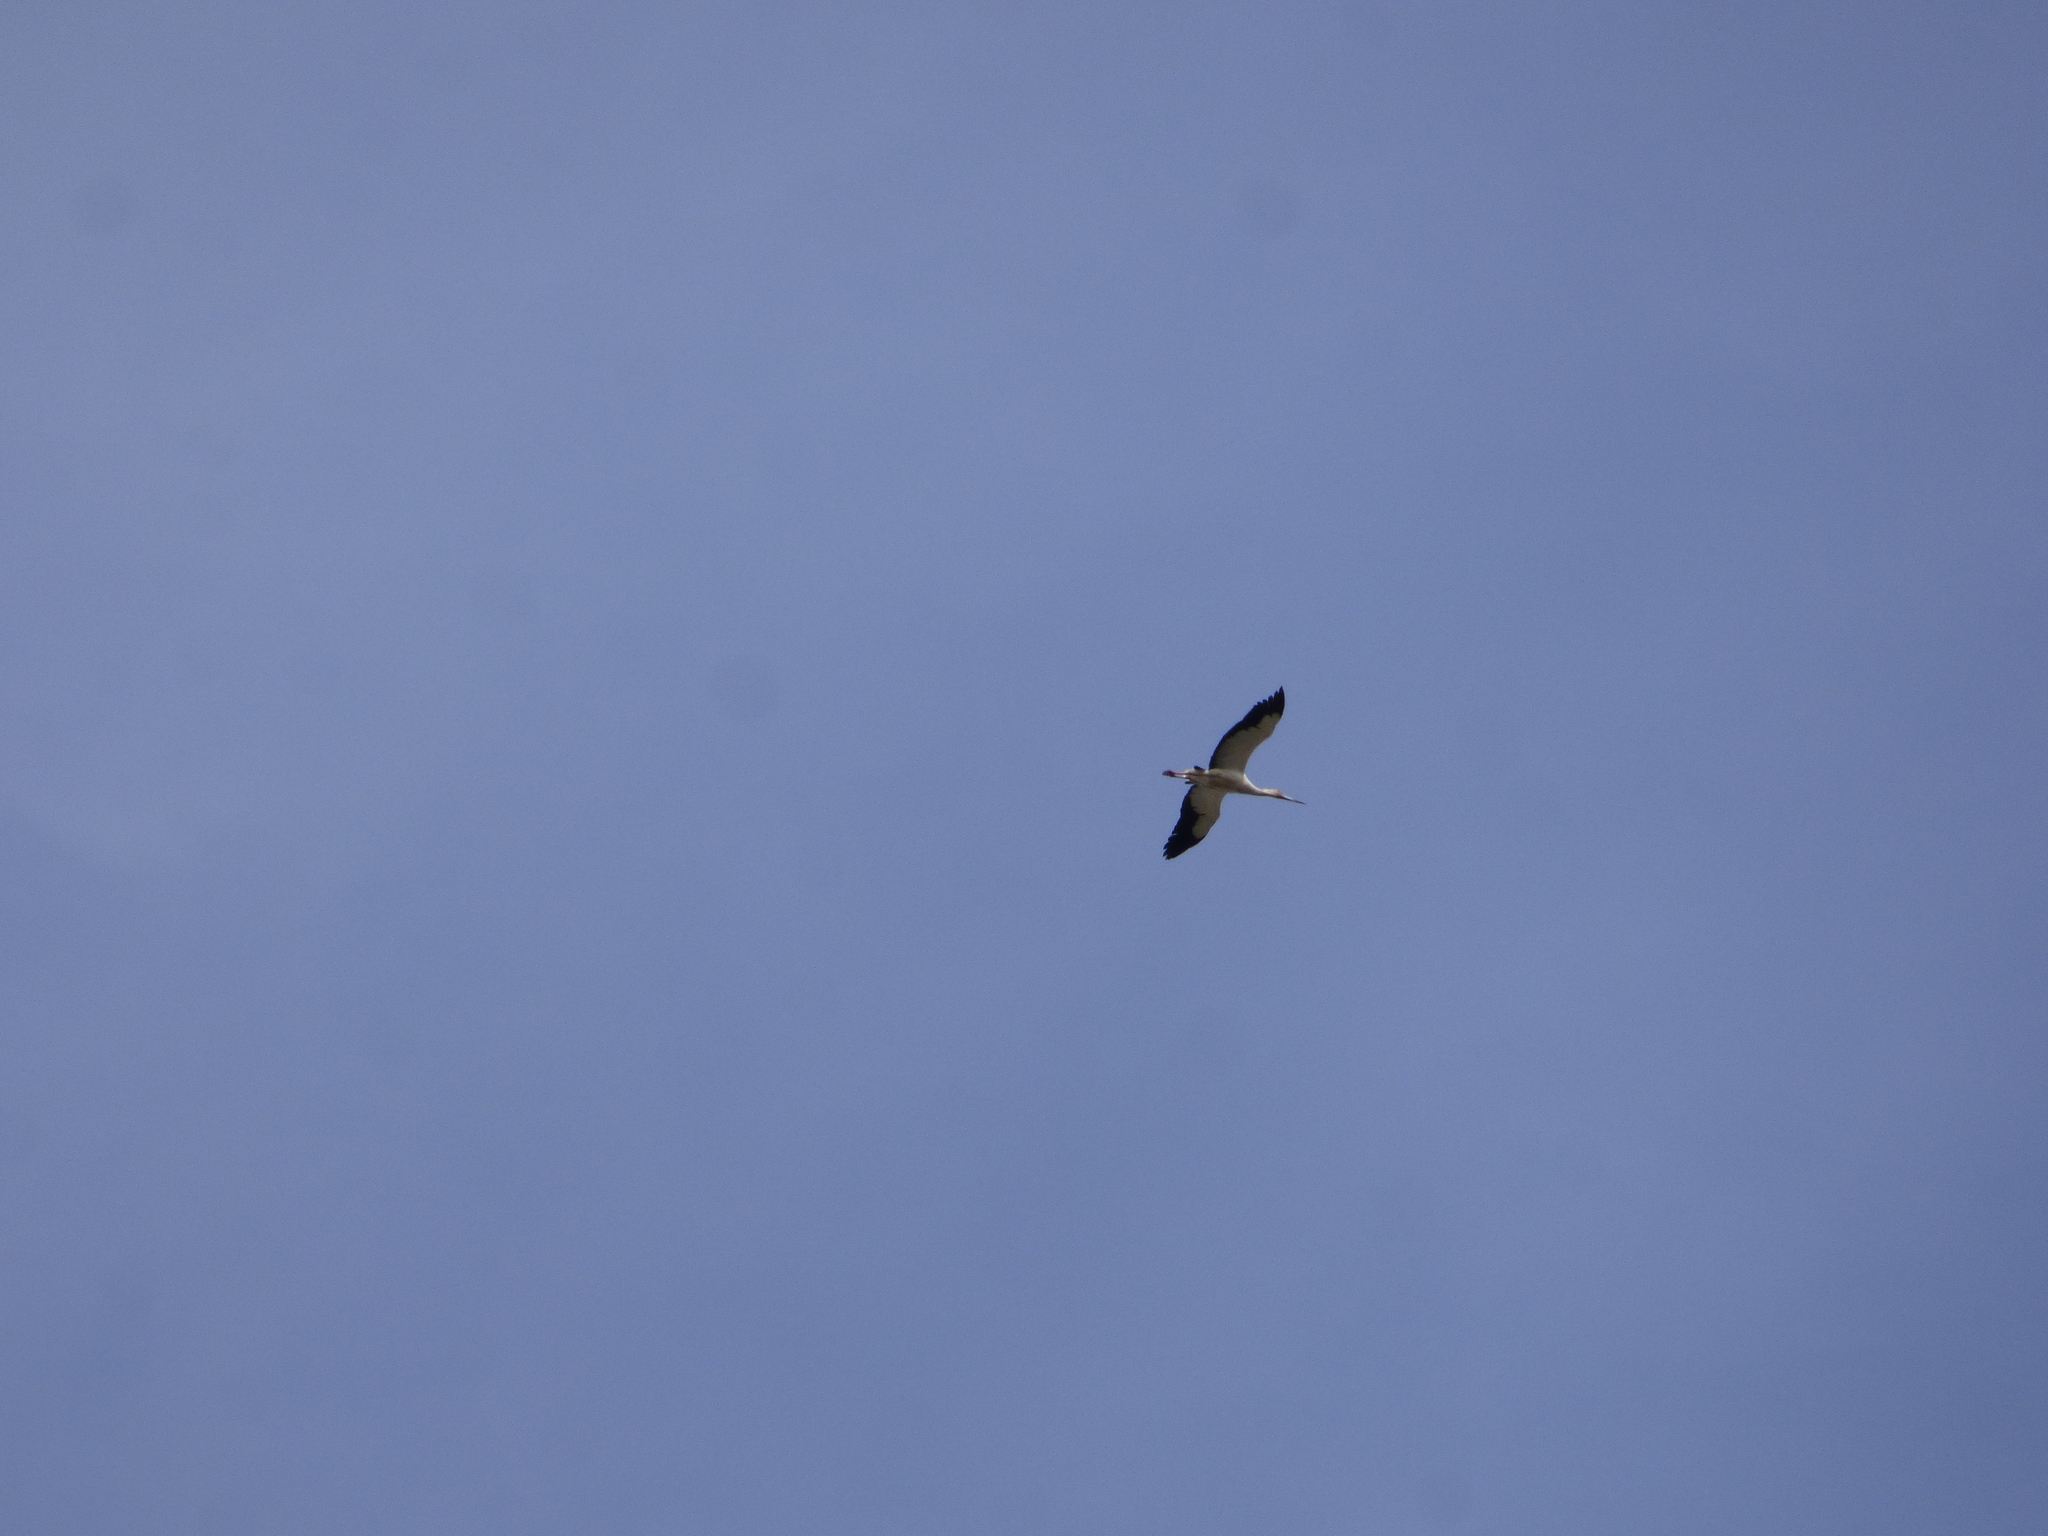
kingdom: Animalia
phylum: Chordata
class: Aves
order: Ciconiiformes
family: Ciconiidae
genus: Ciconia
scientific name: Ciconia maguari
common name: Maguari stork
